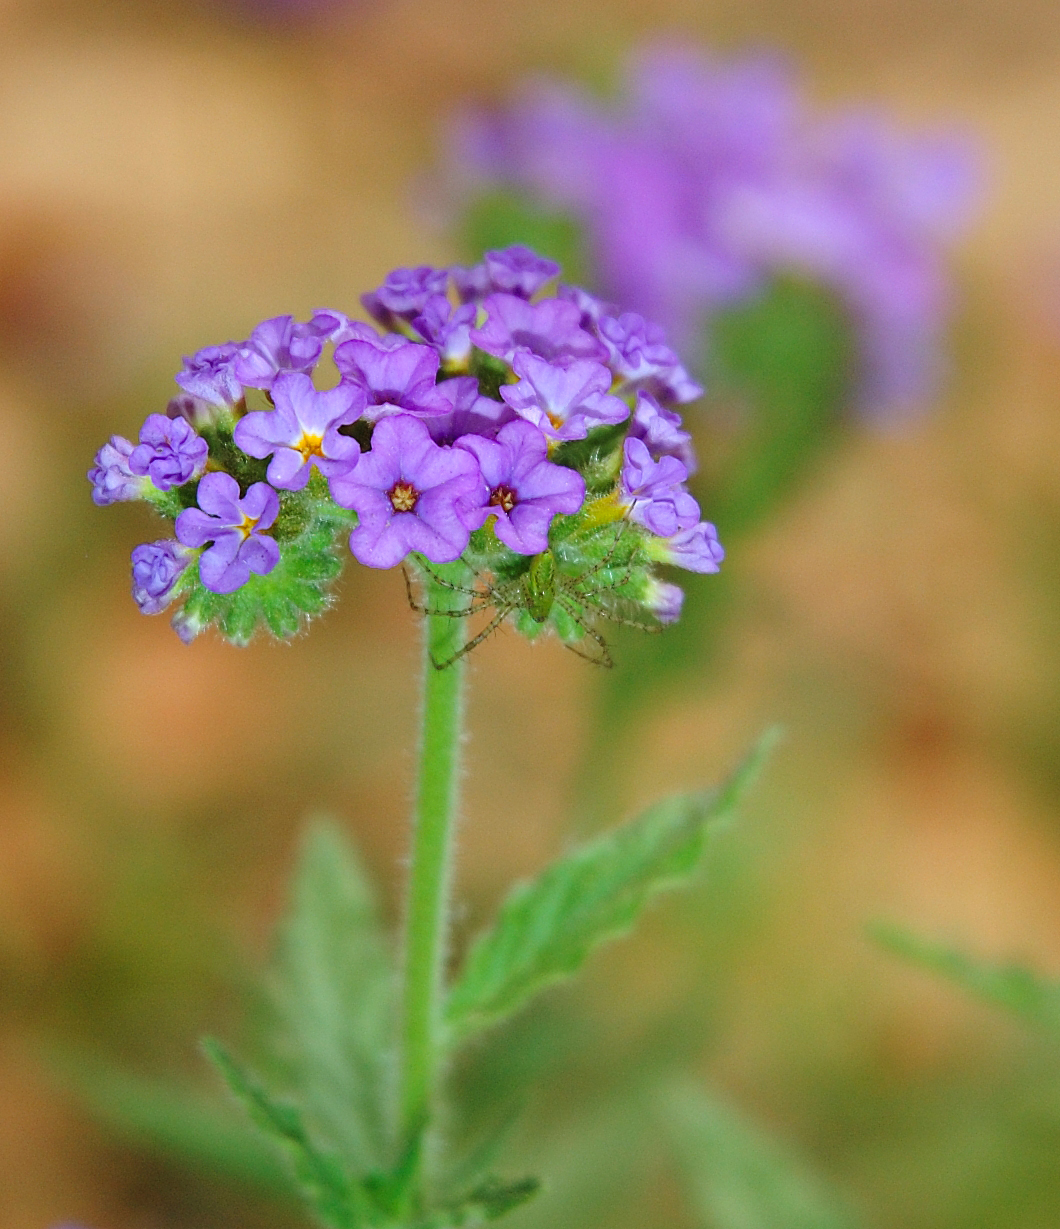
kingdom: Animalia
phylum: Arthropoda
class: Arachnida
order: Araneae
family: Oxyopidae
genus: Peucetia
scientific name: Peucetia viridans
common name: Lynx spiders
